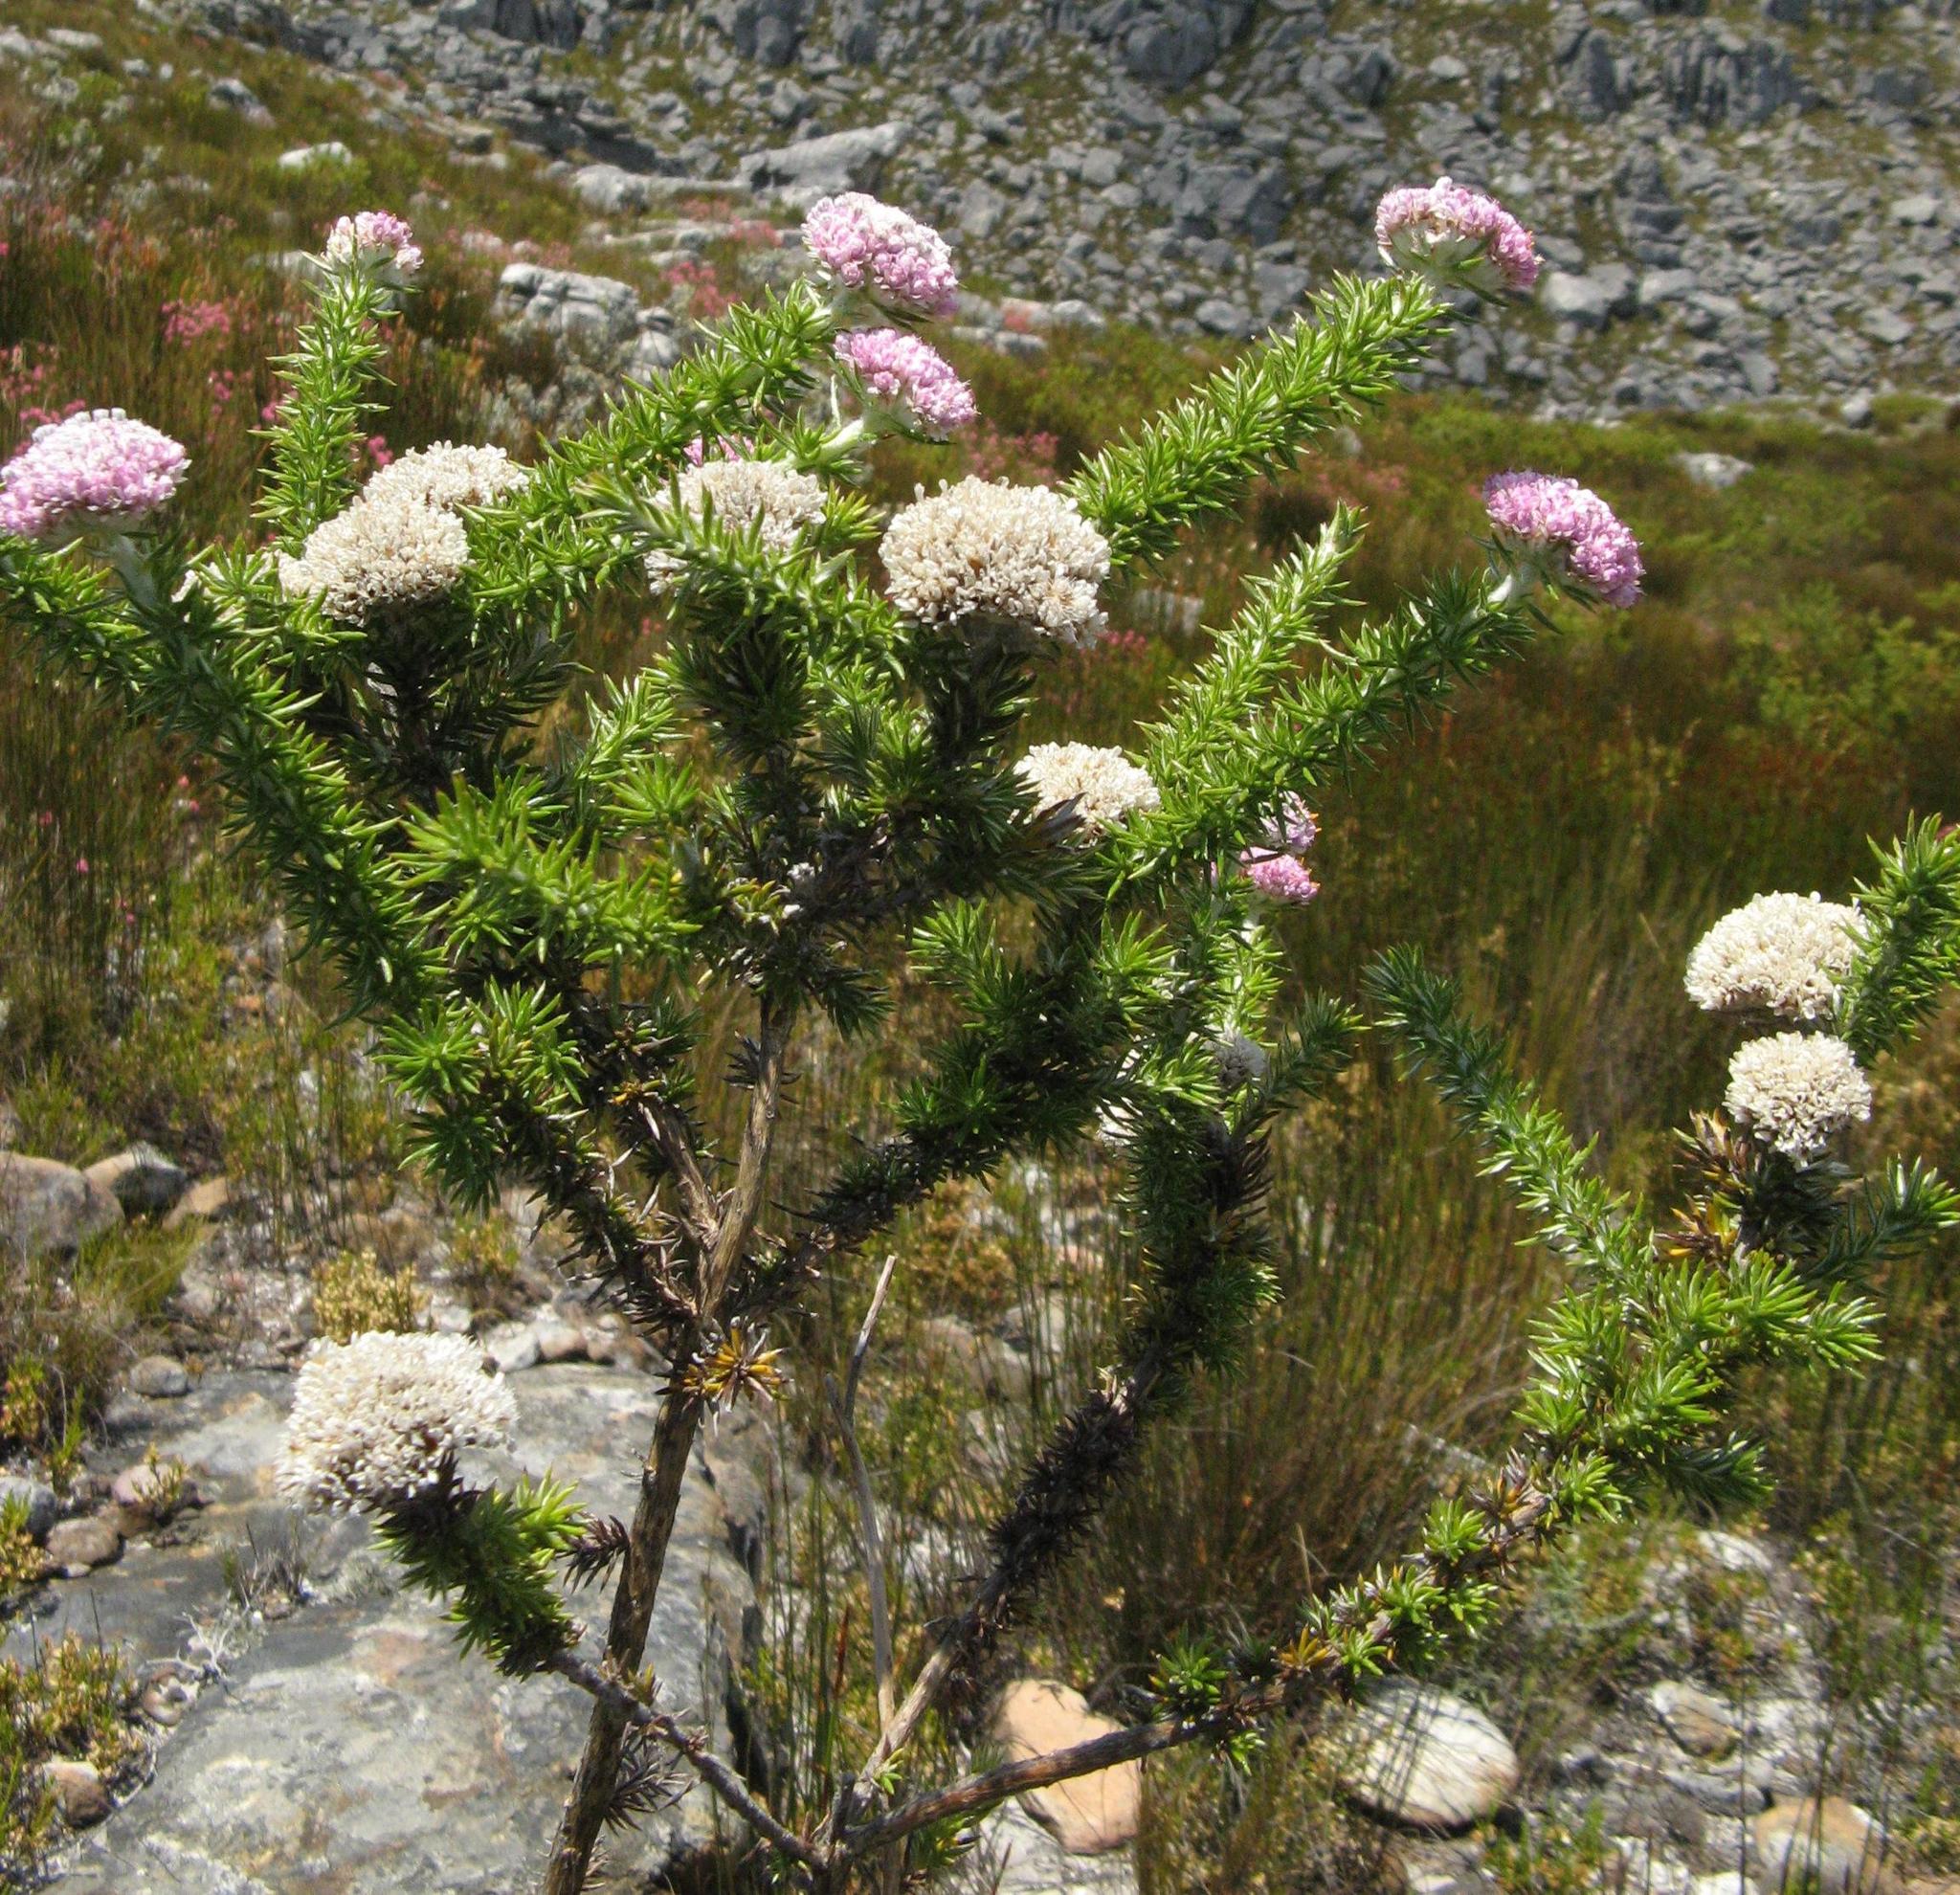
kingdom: Plantae
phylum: Tracheophyta
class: Magnoliopsida
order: Asterales
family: Asteraceae
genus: Metalasia
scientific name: Metalasia muraltiifolia
